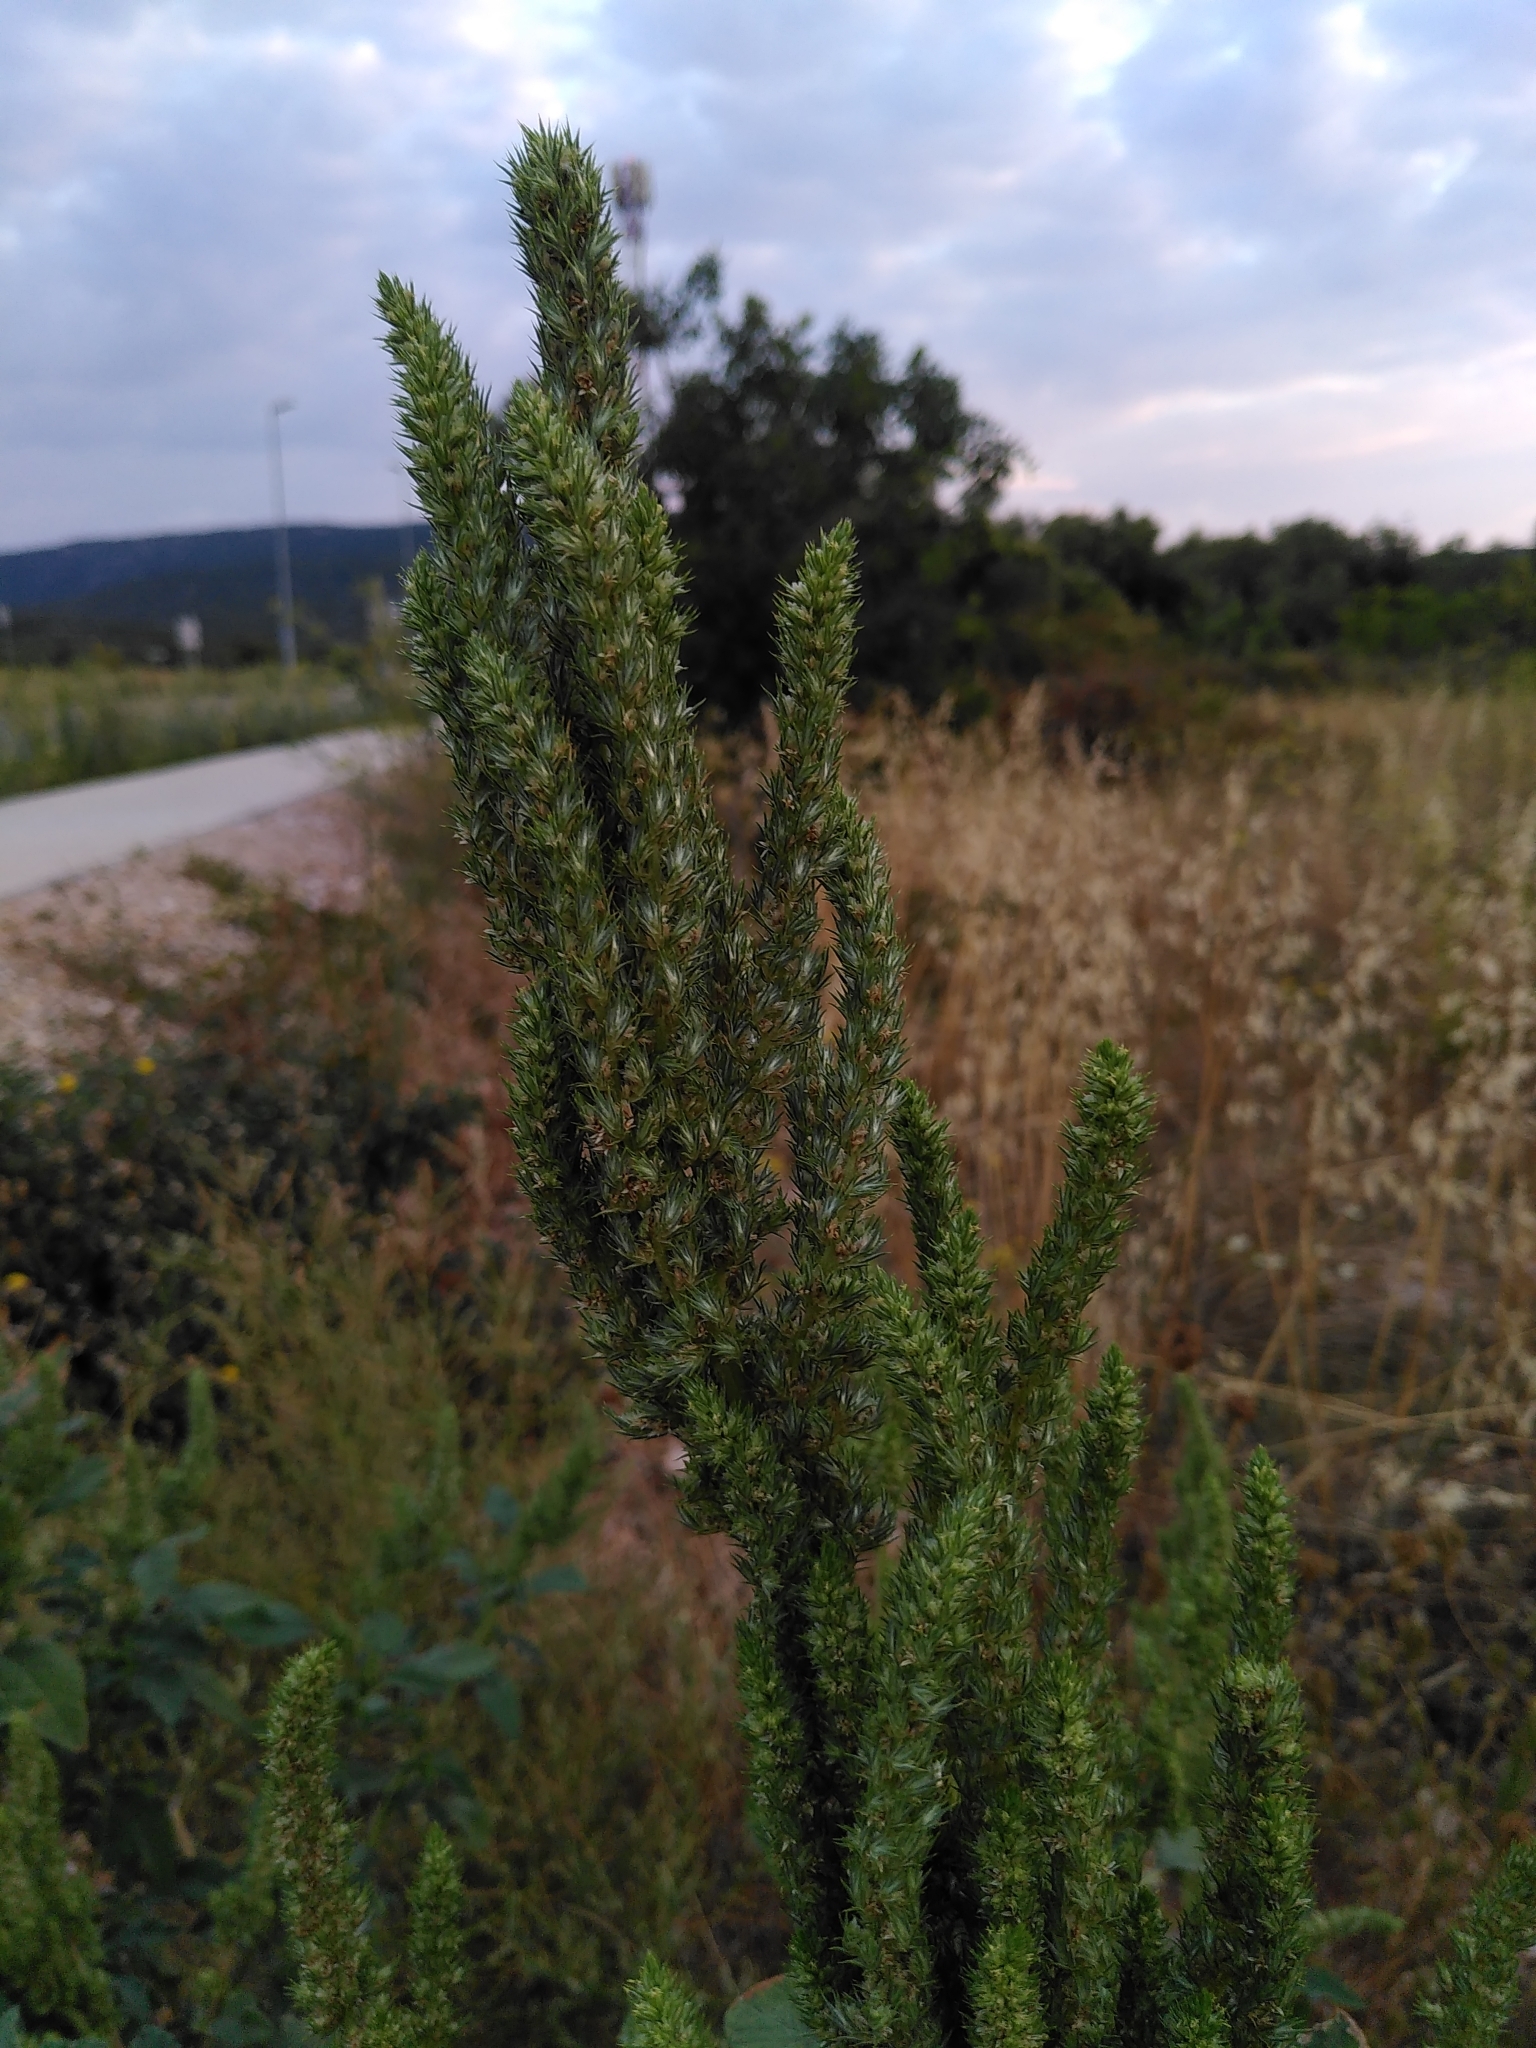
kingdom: Plantae
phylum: Tracheophyta
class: Magnoliopsida
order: Caryophyllales
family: Amaranthaceae
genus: Amaranthus
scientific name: Amaranthus retroflexus
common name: Redroot amaranth
